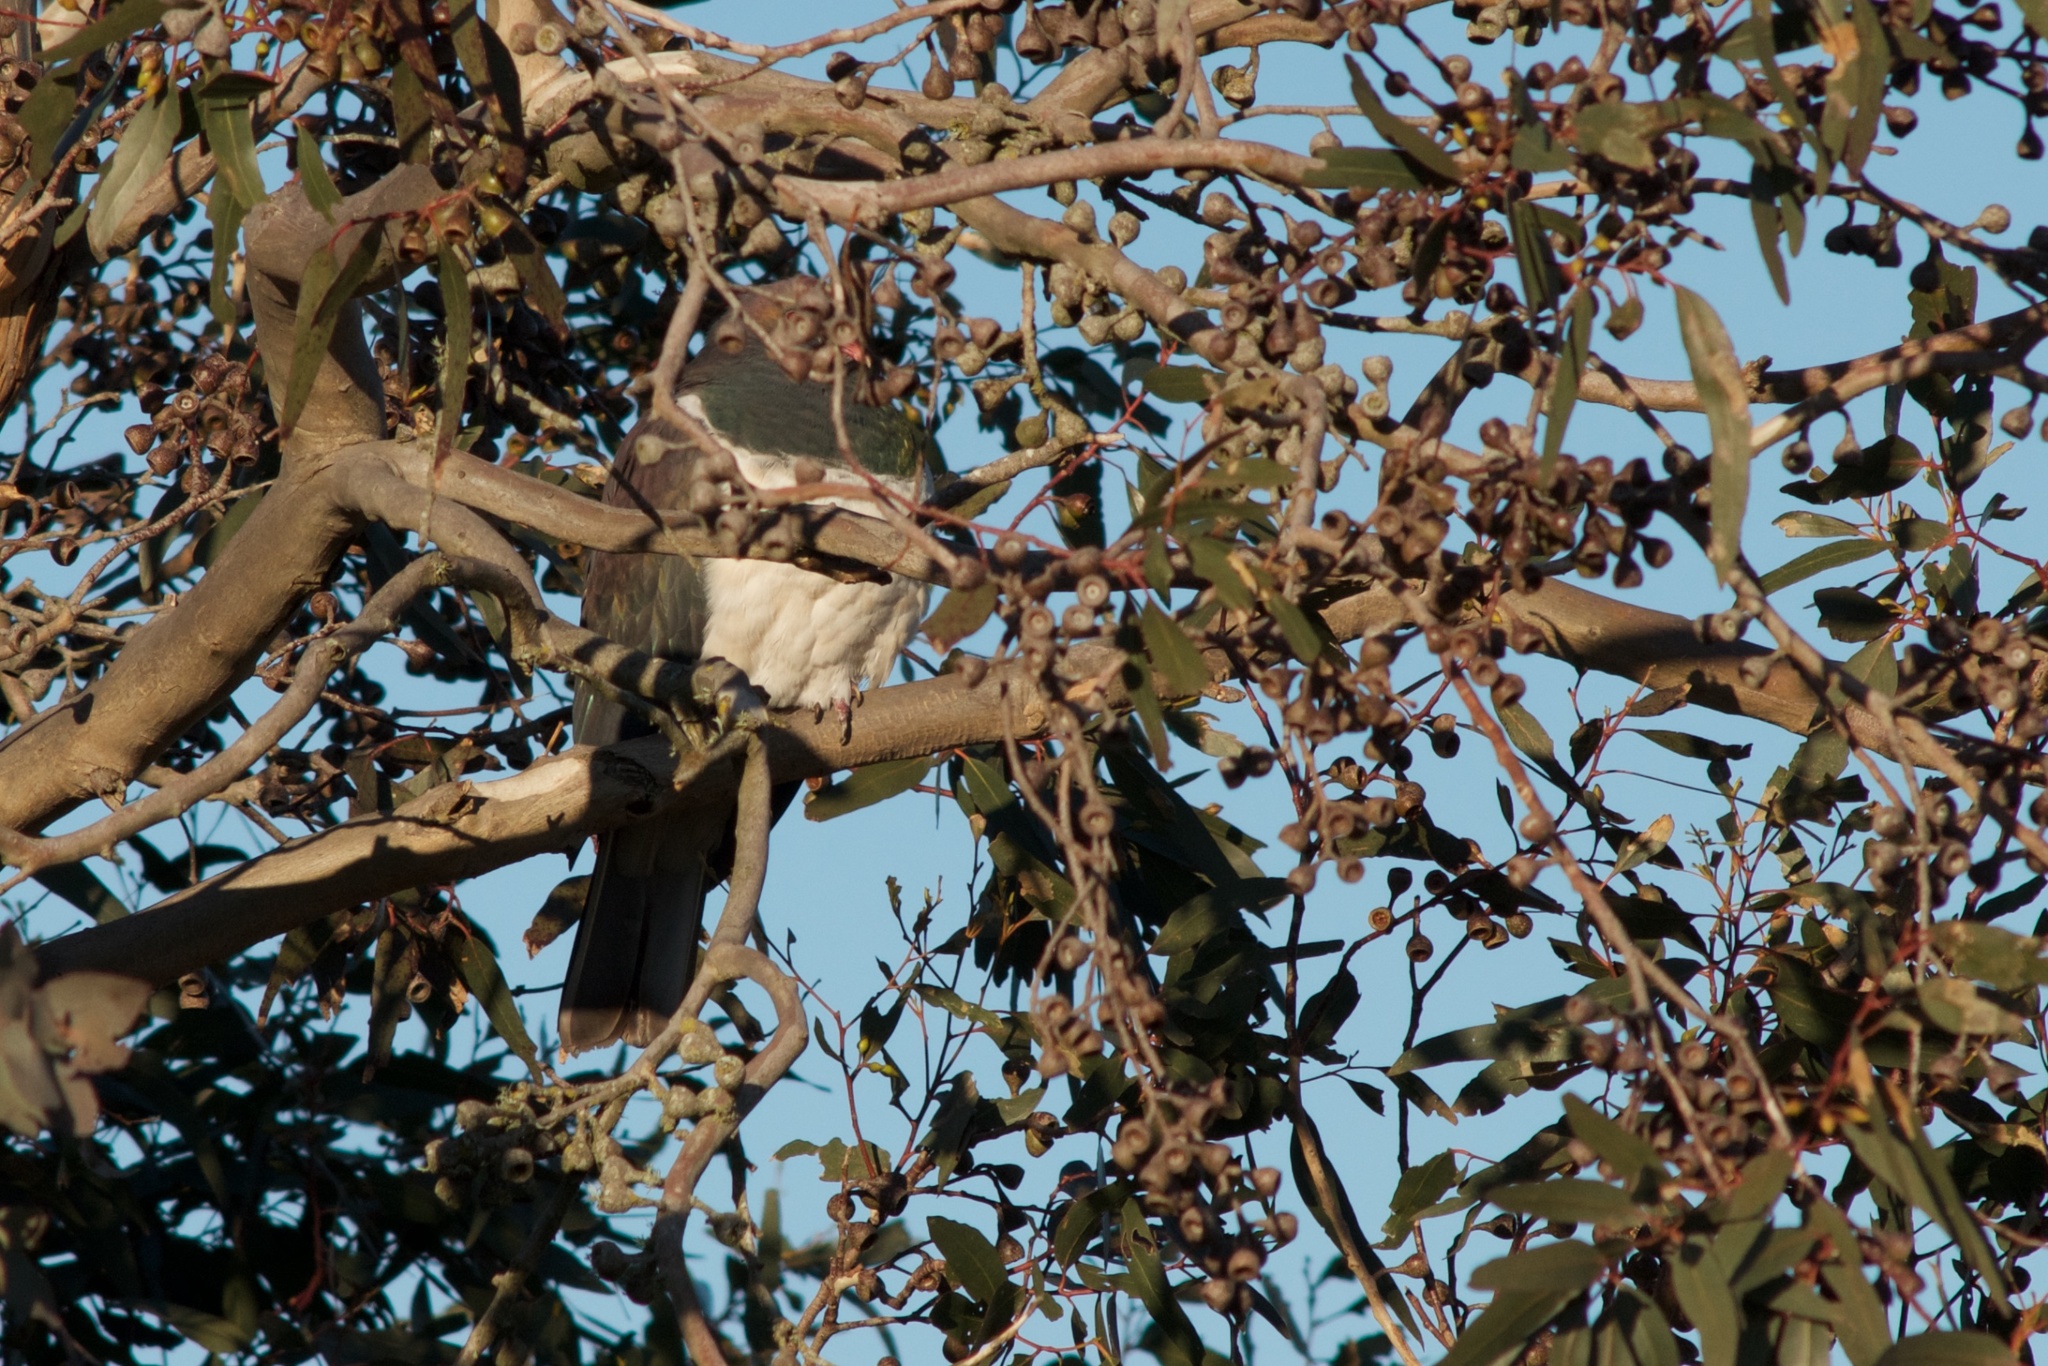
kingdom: Animalia
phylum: Chordata
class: Aves
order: Columbiformes
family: Columbidae
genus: Hemiphaga
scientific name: Hemiphaga novaeseelandiae
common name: New zealand pigeon
